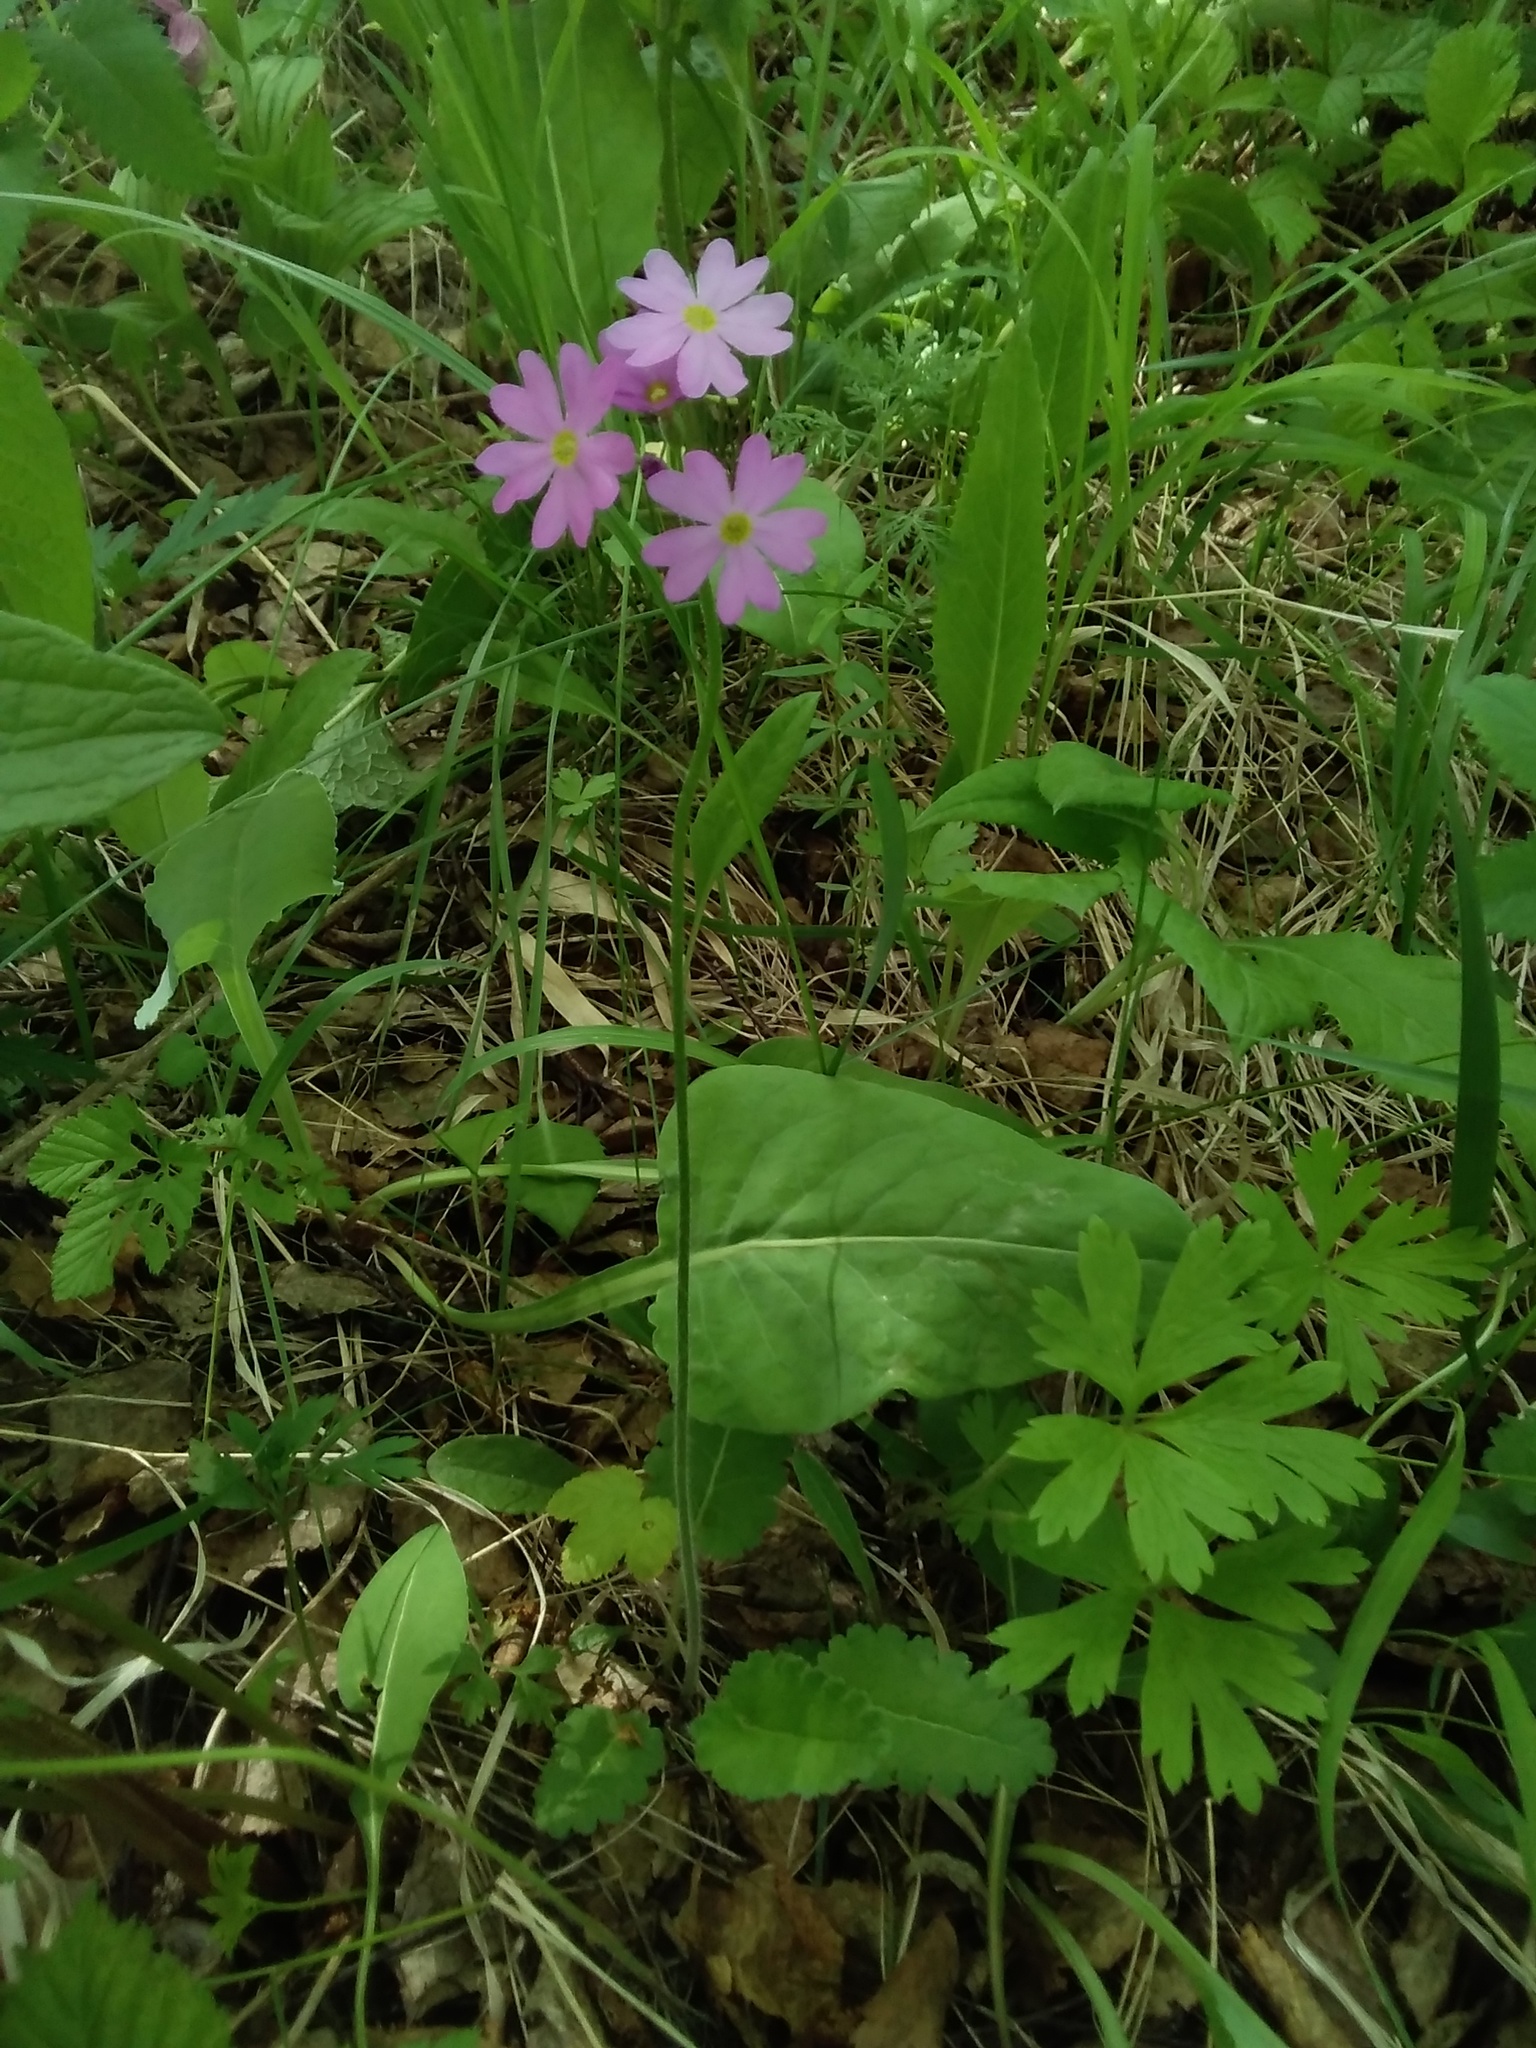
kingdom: Plantae
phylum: Tracheophyta
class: Magnoliopsida
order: Ericales
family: Primulaceae
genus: Primula
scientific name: Primula cortusoides
